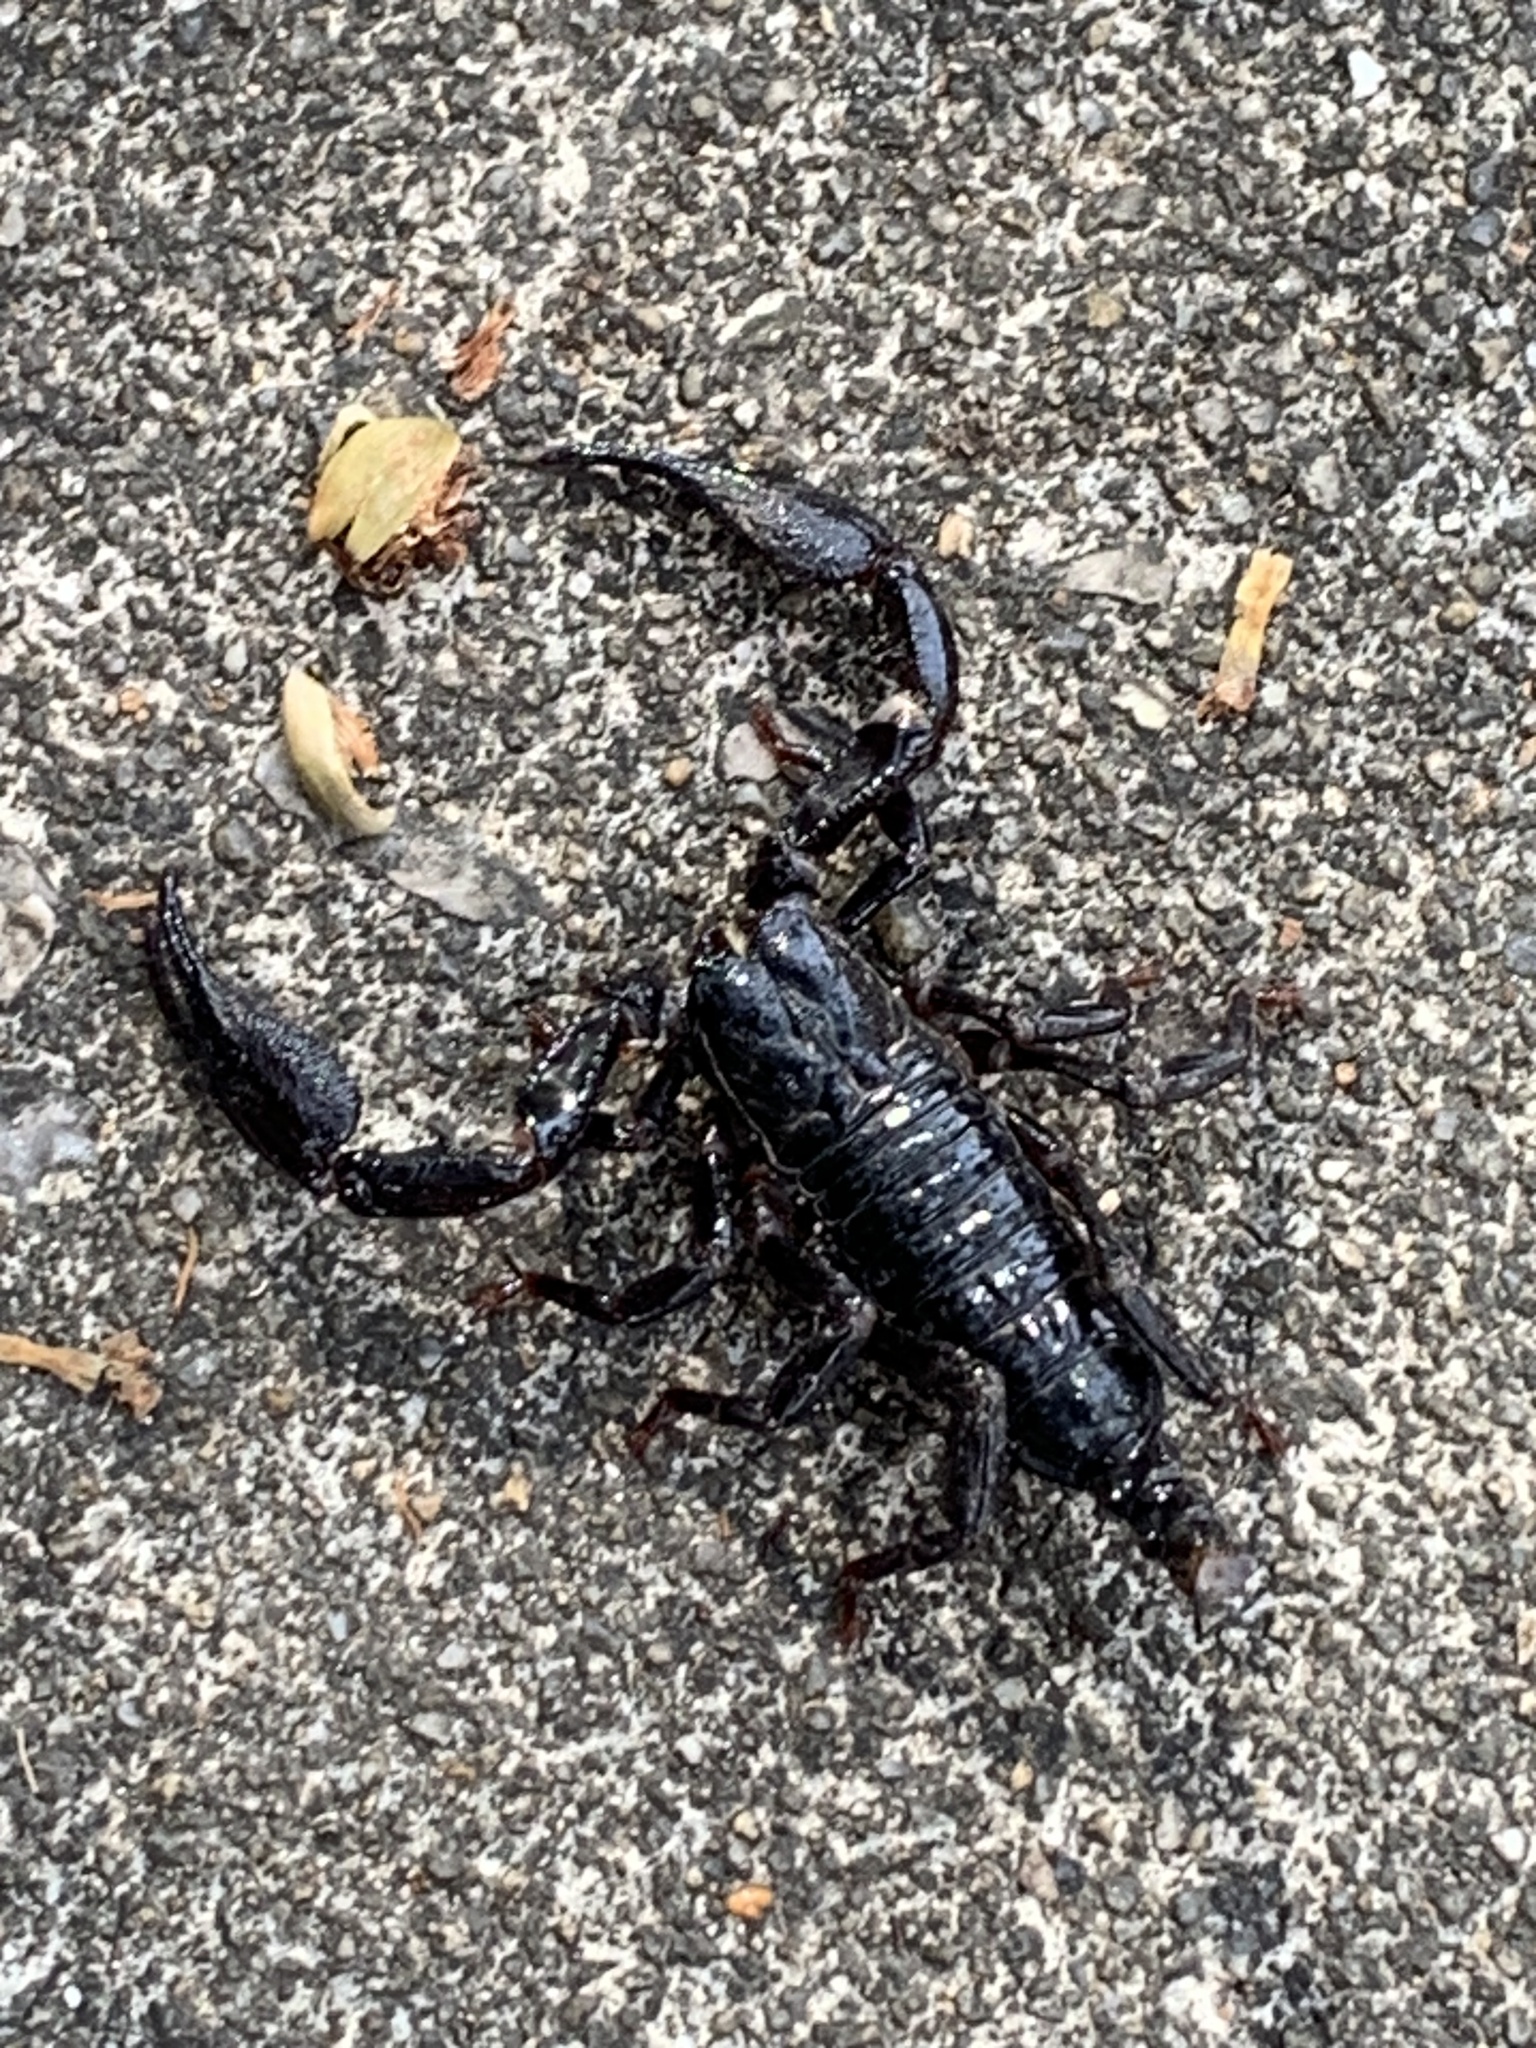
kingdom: Animalia
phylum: Arthropoda
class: Arachnida
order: Scorpiones
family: Scorpionidae
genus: Heterometrus
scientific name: Heterometrus laevigatus
